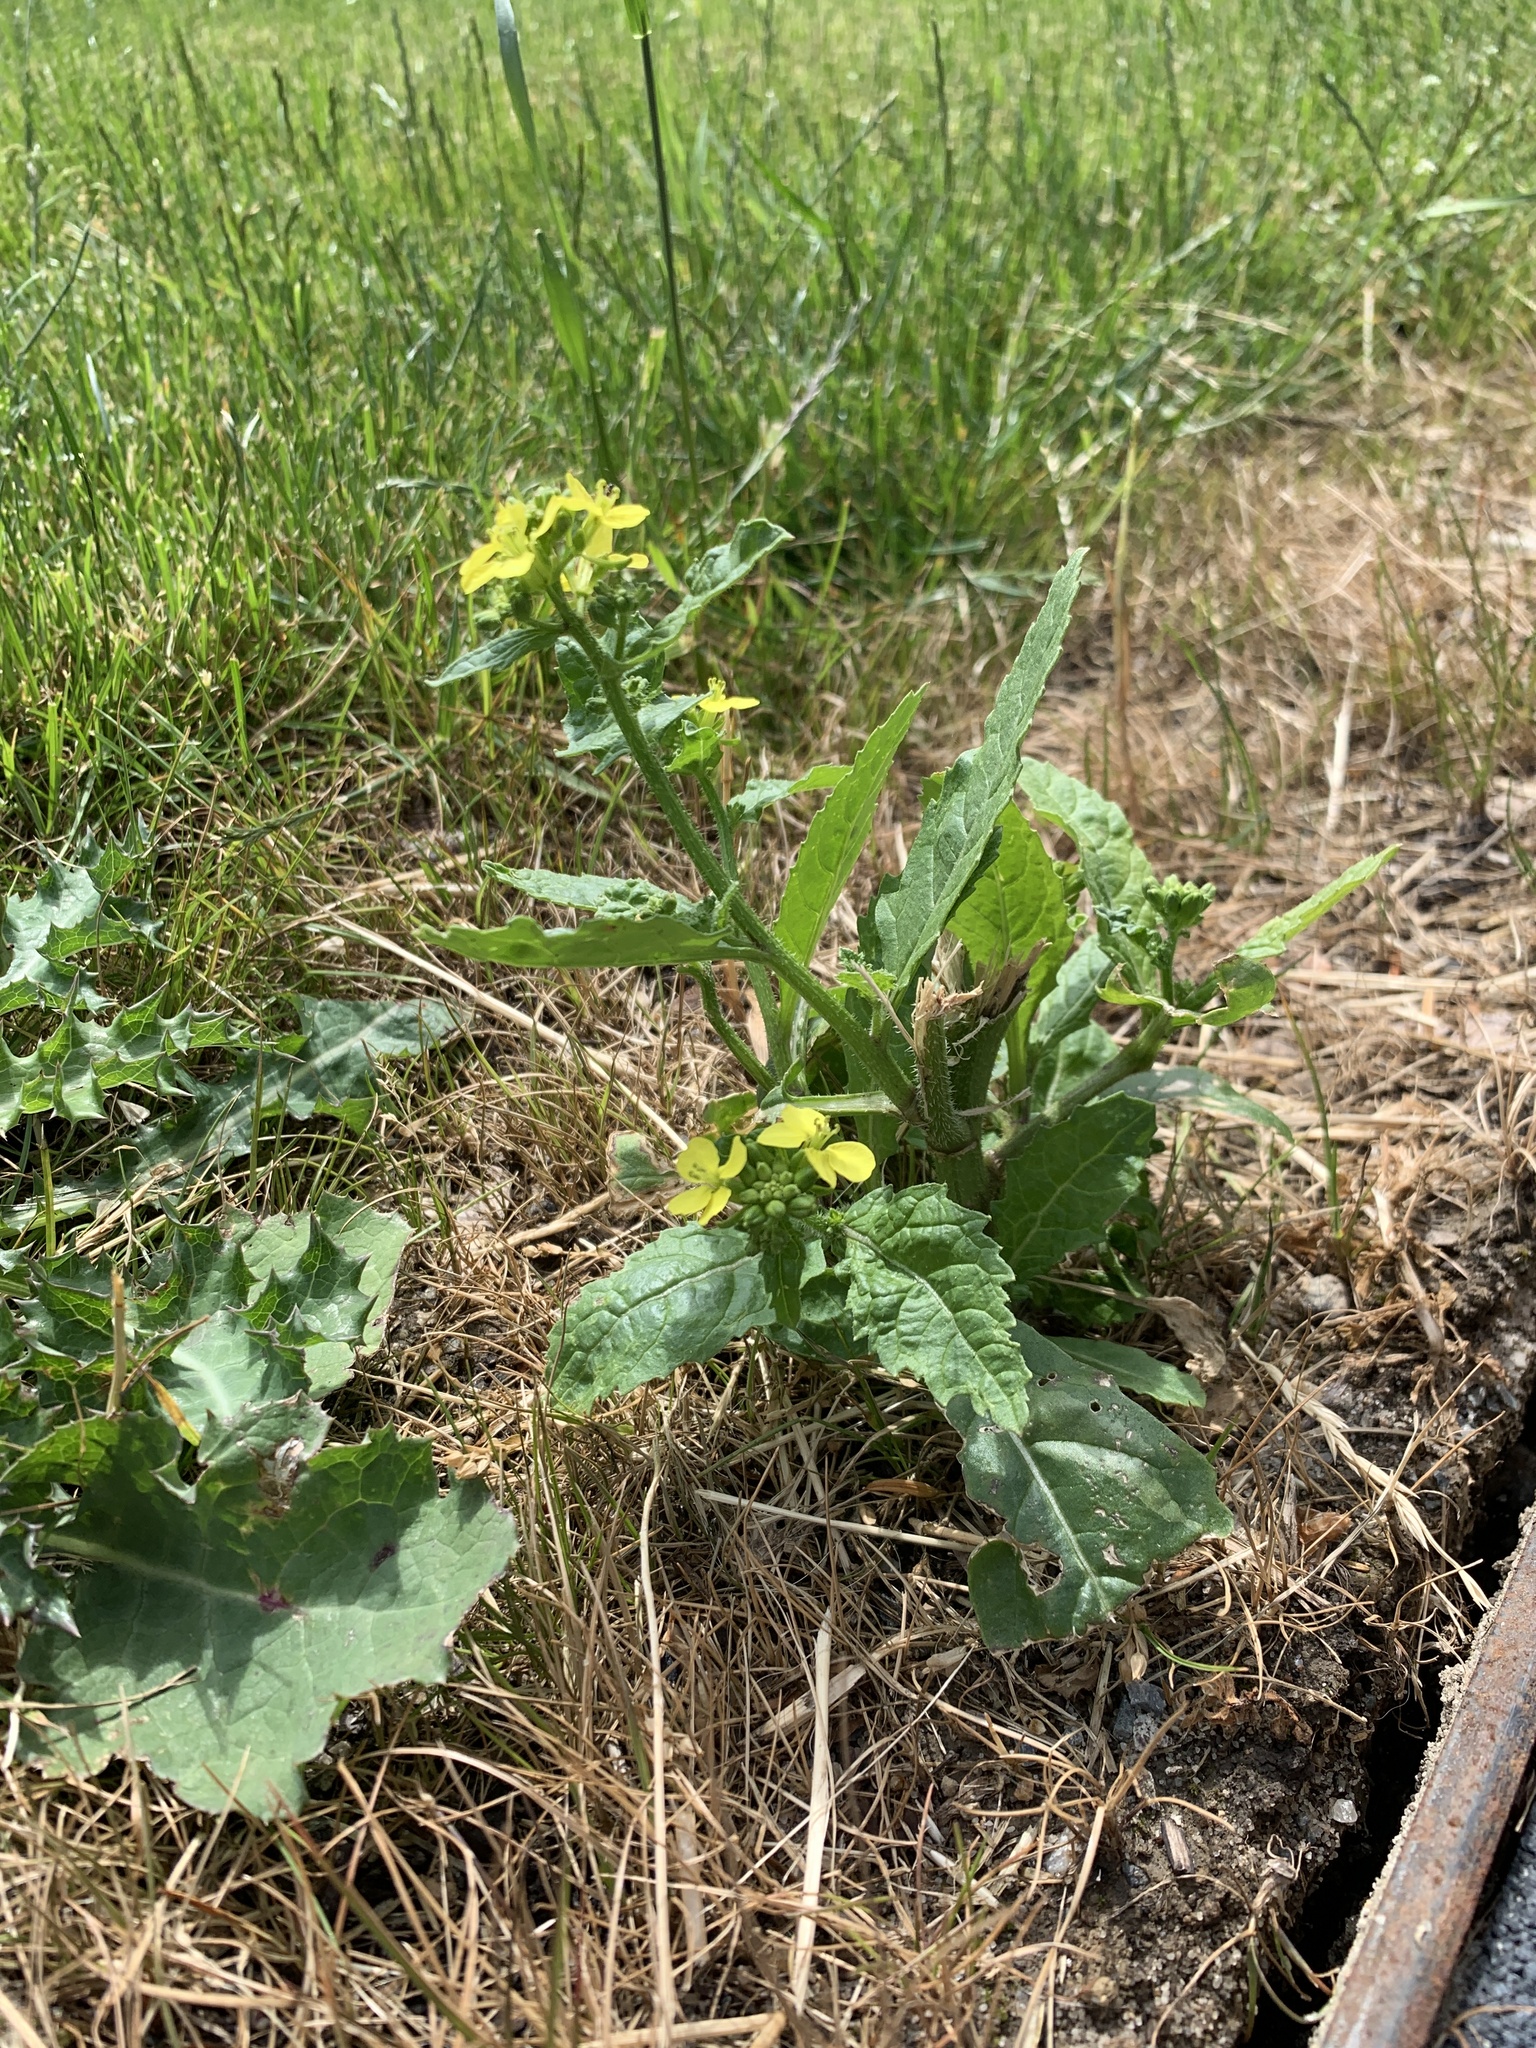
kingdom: Plantae
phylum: Tracheophyta
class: Magnoliopsida
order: Brassicales
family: Brassicaceae
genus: Sinapis
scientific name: Sinapis arvensis
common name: Charlock
